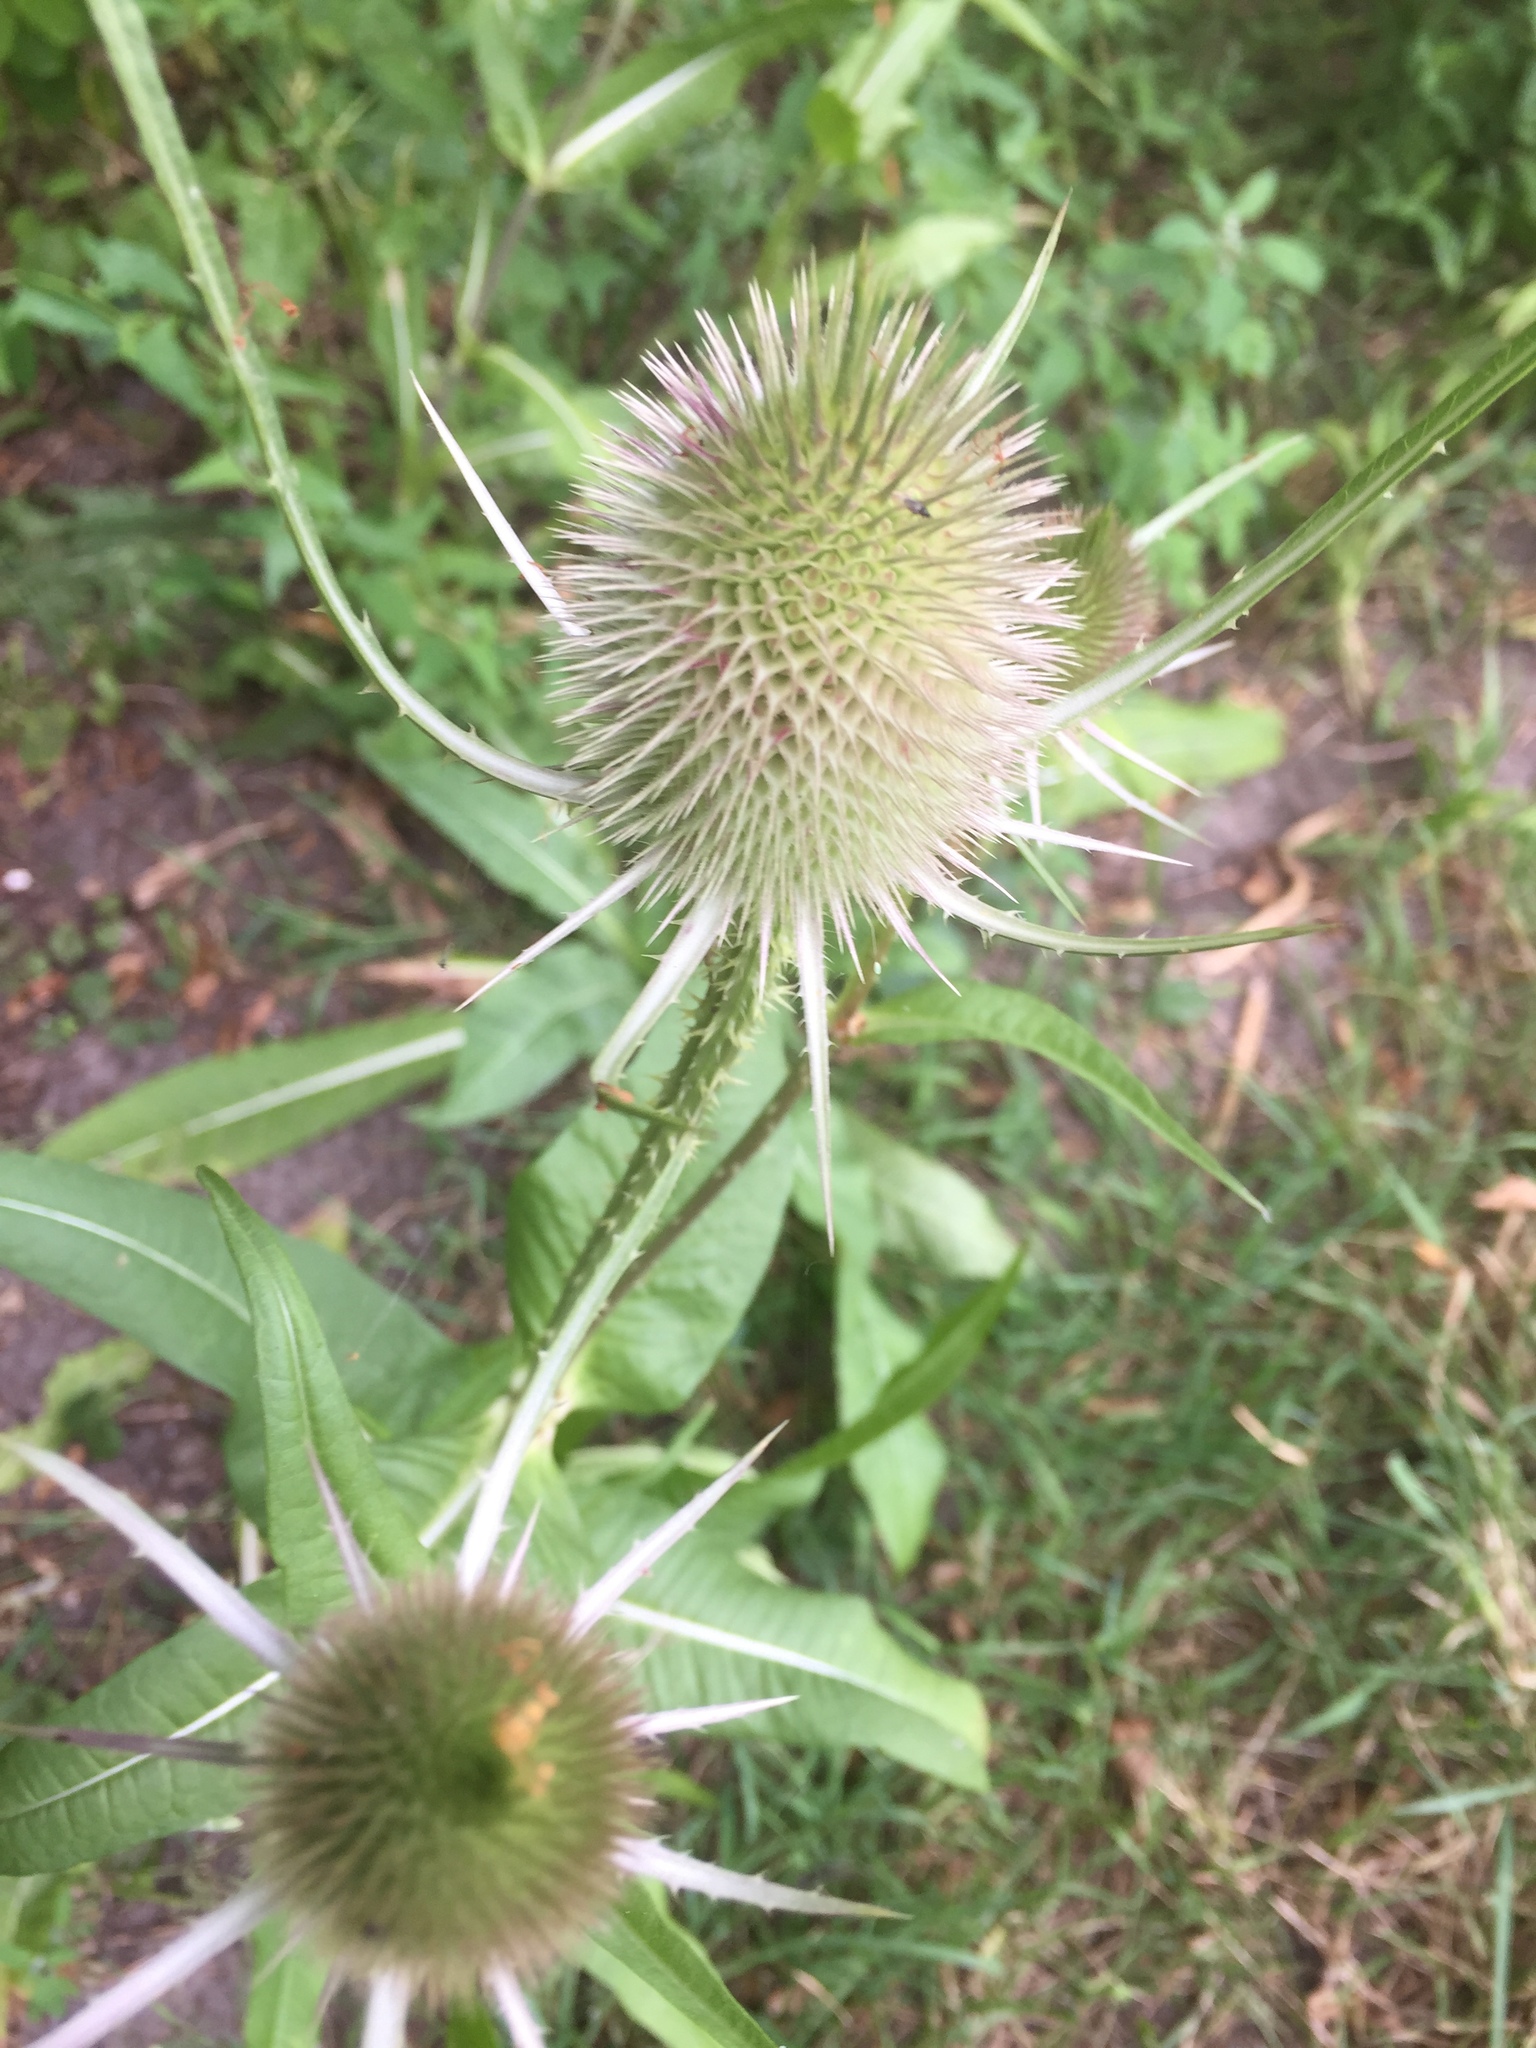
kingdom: Plantae
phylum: Tracheophyta
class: Magnoliopsida
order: Dipsacales
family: Caprifoliaceae
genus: Dipsacus
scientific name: Dipsacus fullonum
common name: Teasel
